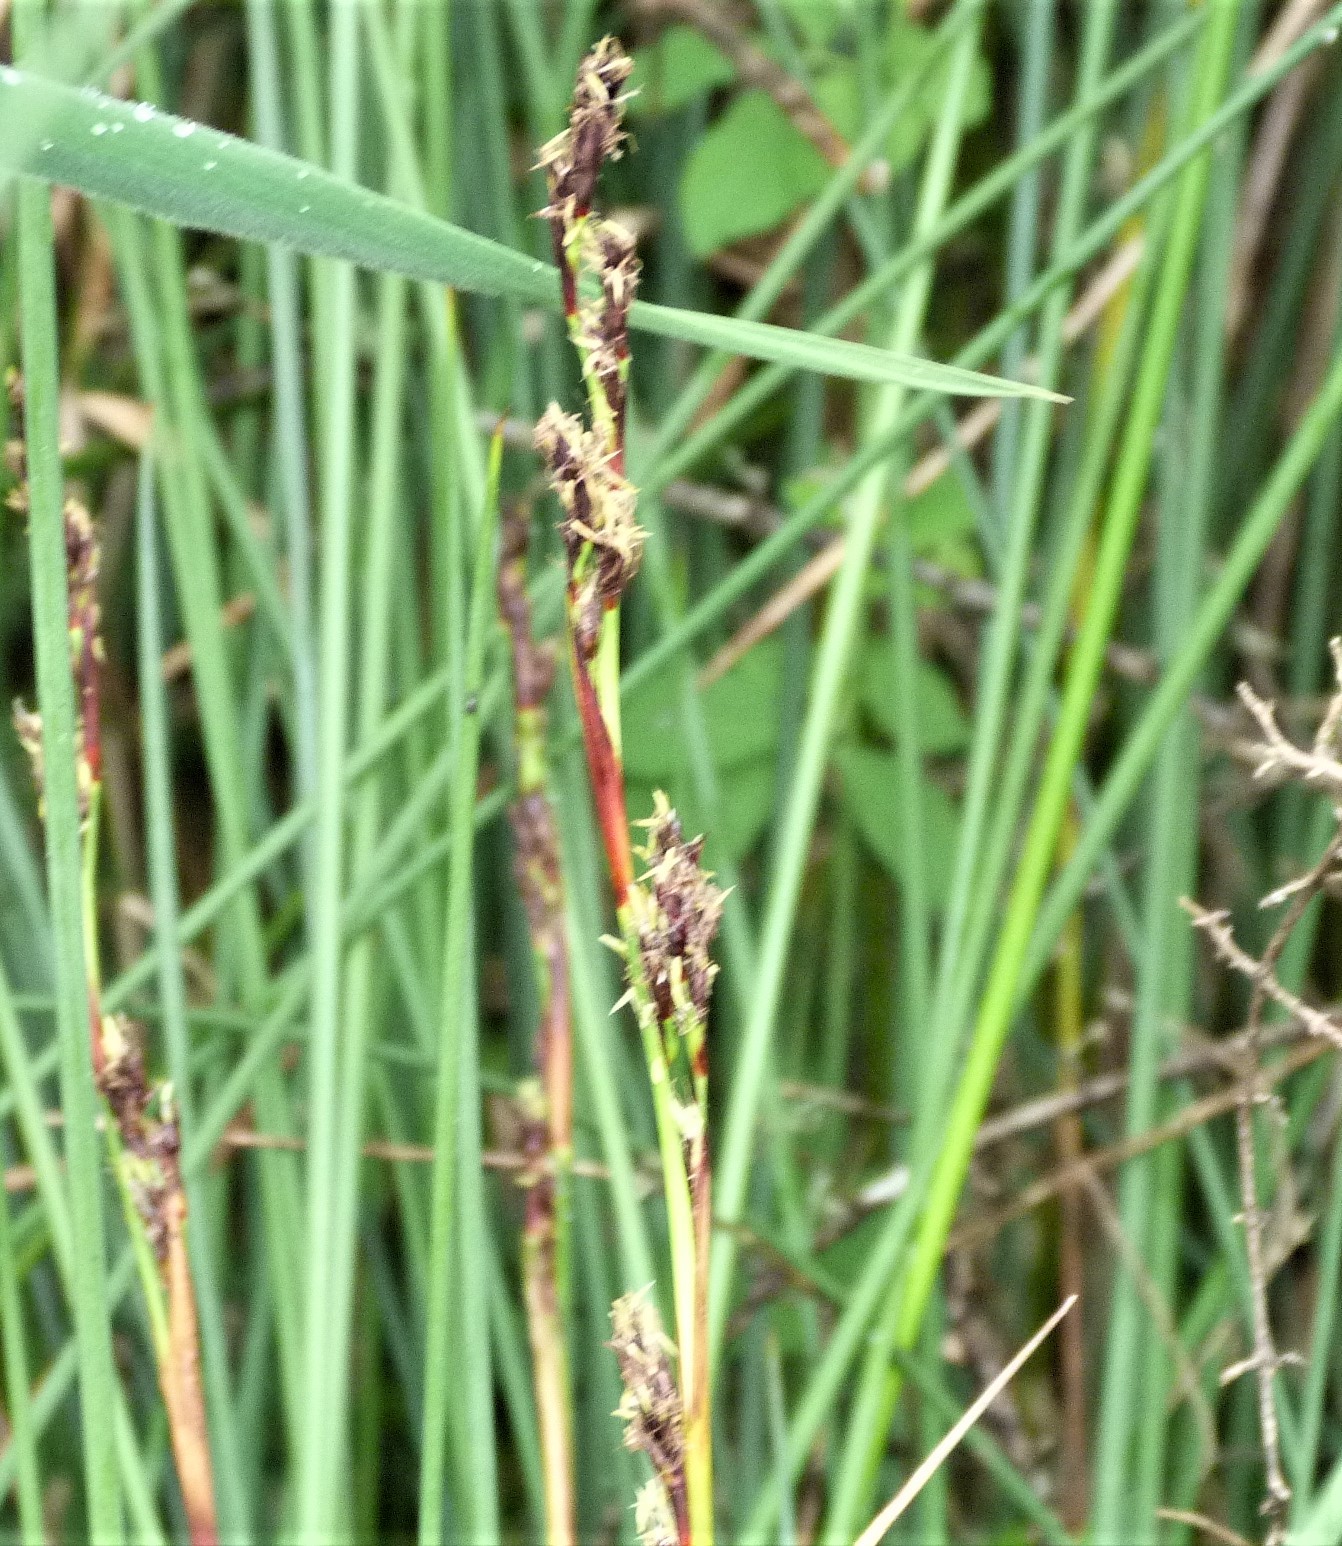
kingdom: Plantae
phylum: Tracheophyta
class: Liliopsida
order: Poales
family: Cyperaceae
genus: Machaerina
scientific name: Machaerina rubiginosa
